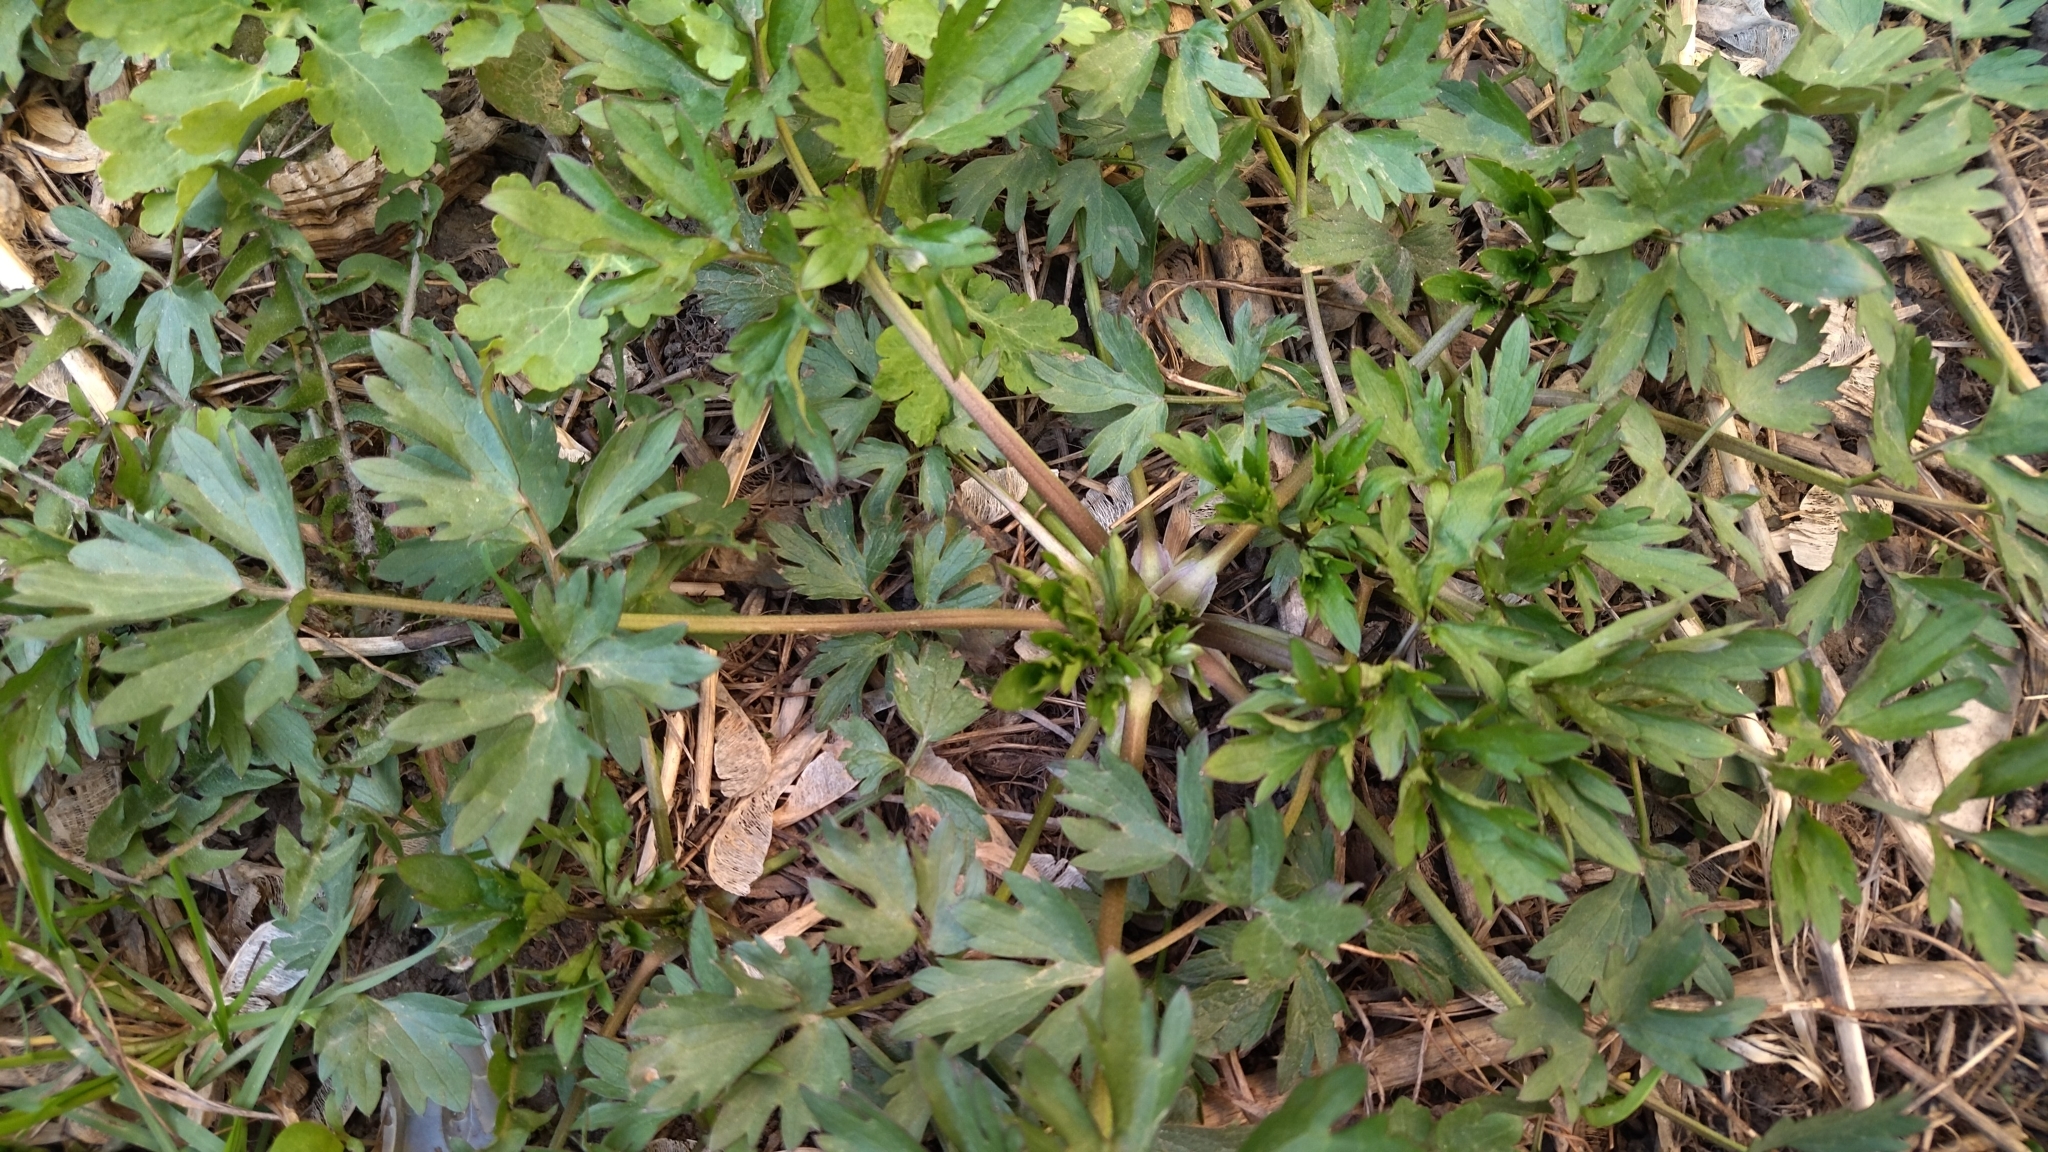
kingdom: Plantae
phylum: Tracheophyta
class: Magnoliopsida
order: Ranunculales
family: Ranunculaceae
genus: Ranunculus
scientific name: Ranunculus repens
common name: Creeping buttercup
